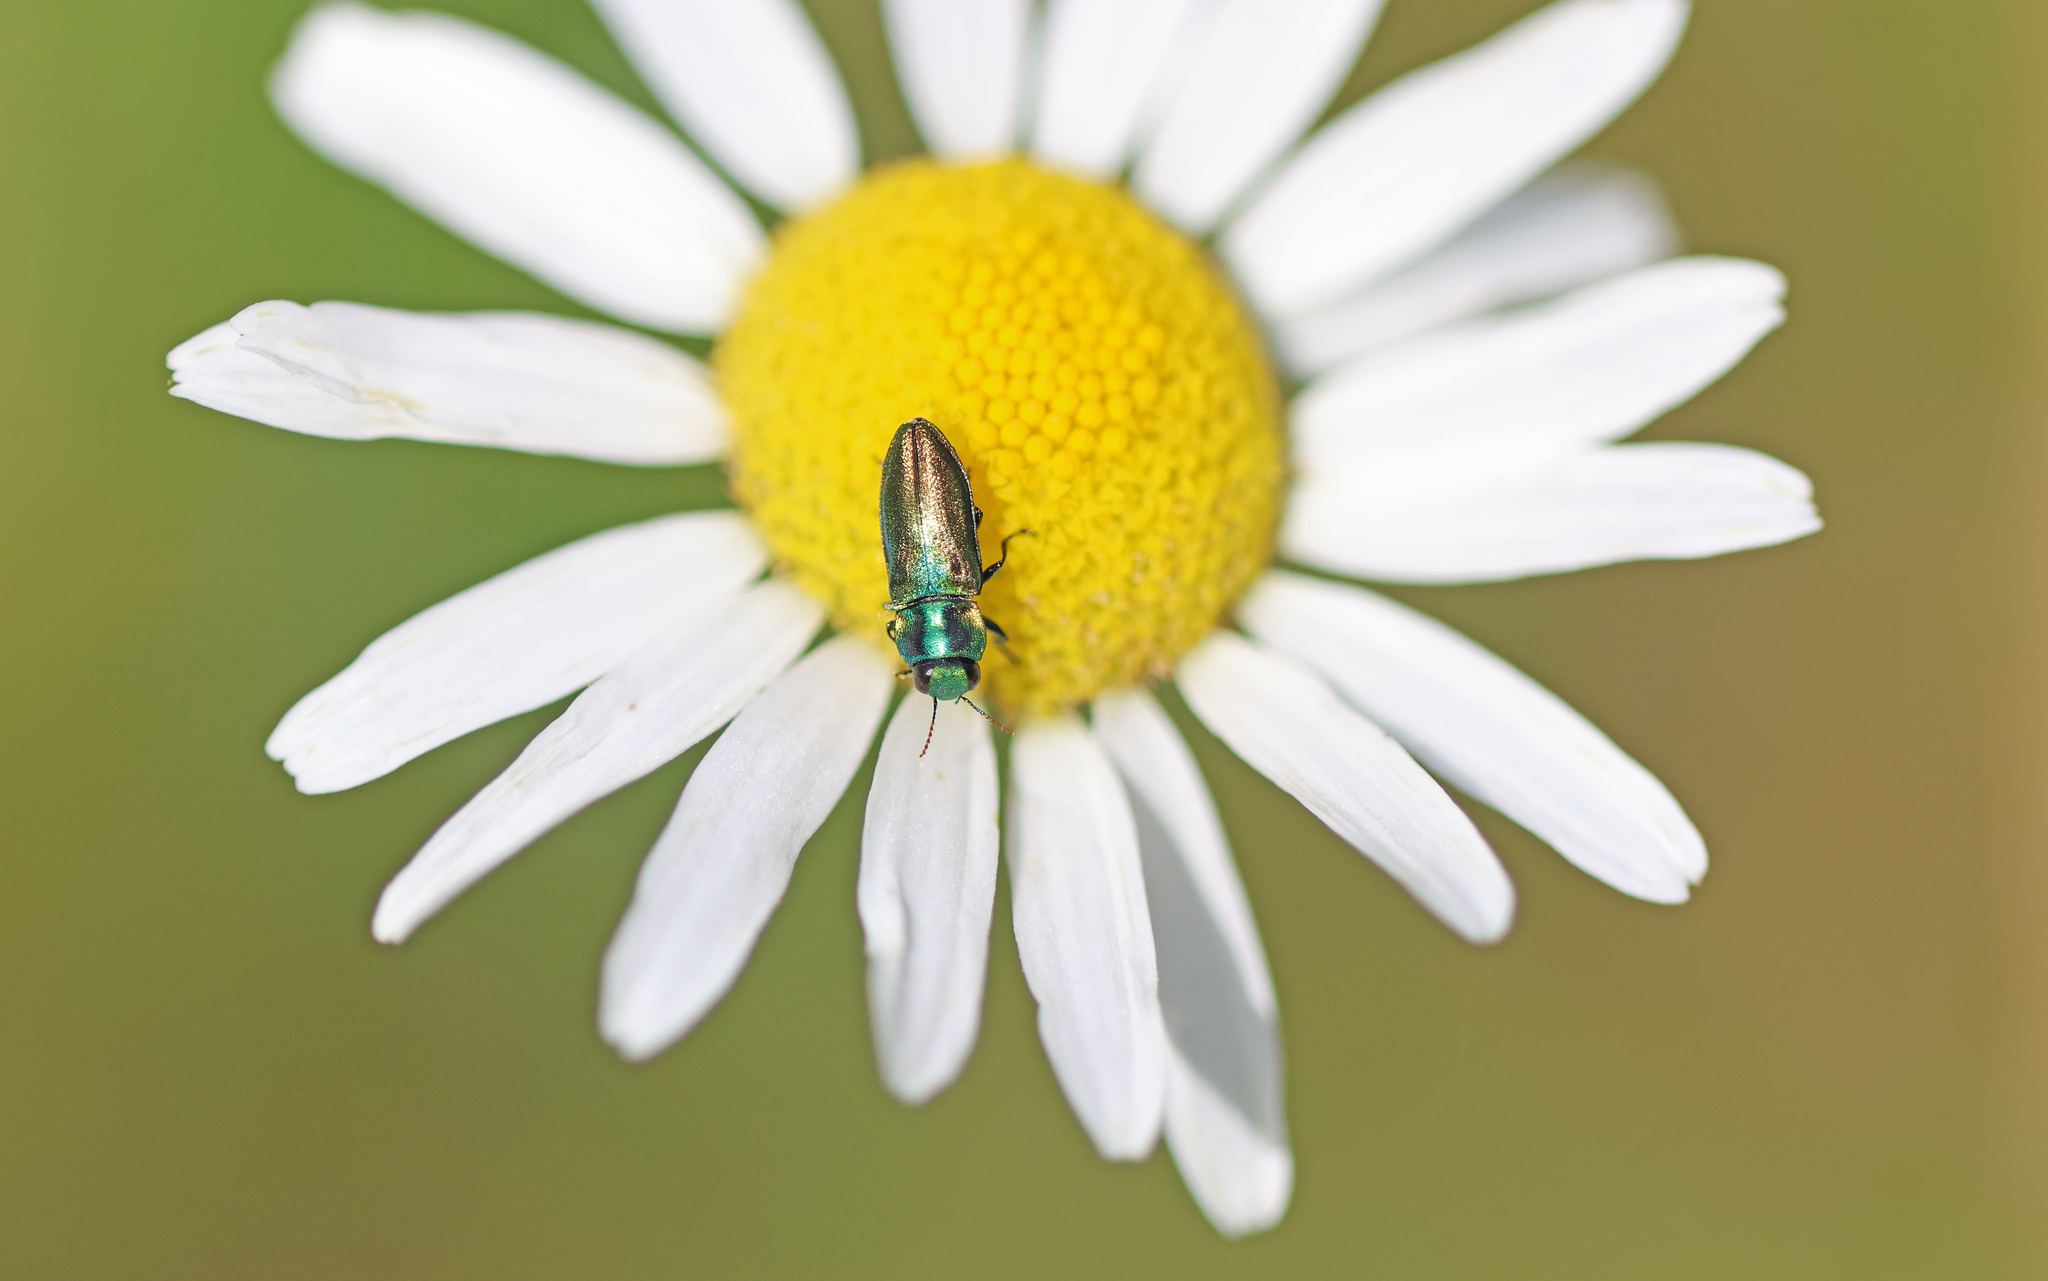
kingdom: Animalia
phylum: Arthropoda
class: Insecta
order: Coleoptera
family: Buprestidae
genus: Anthaxia
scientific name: Anthaxia podolica
